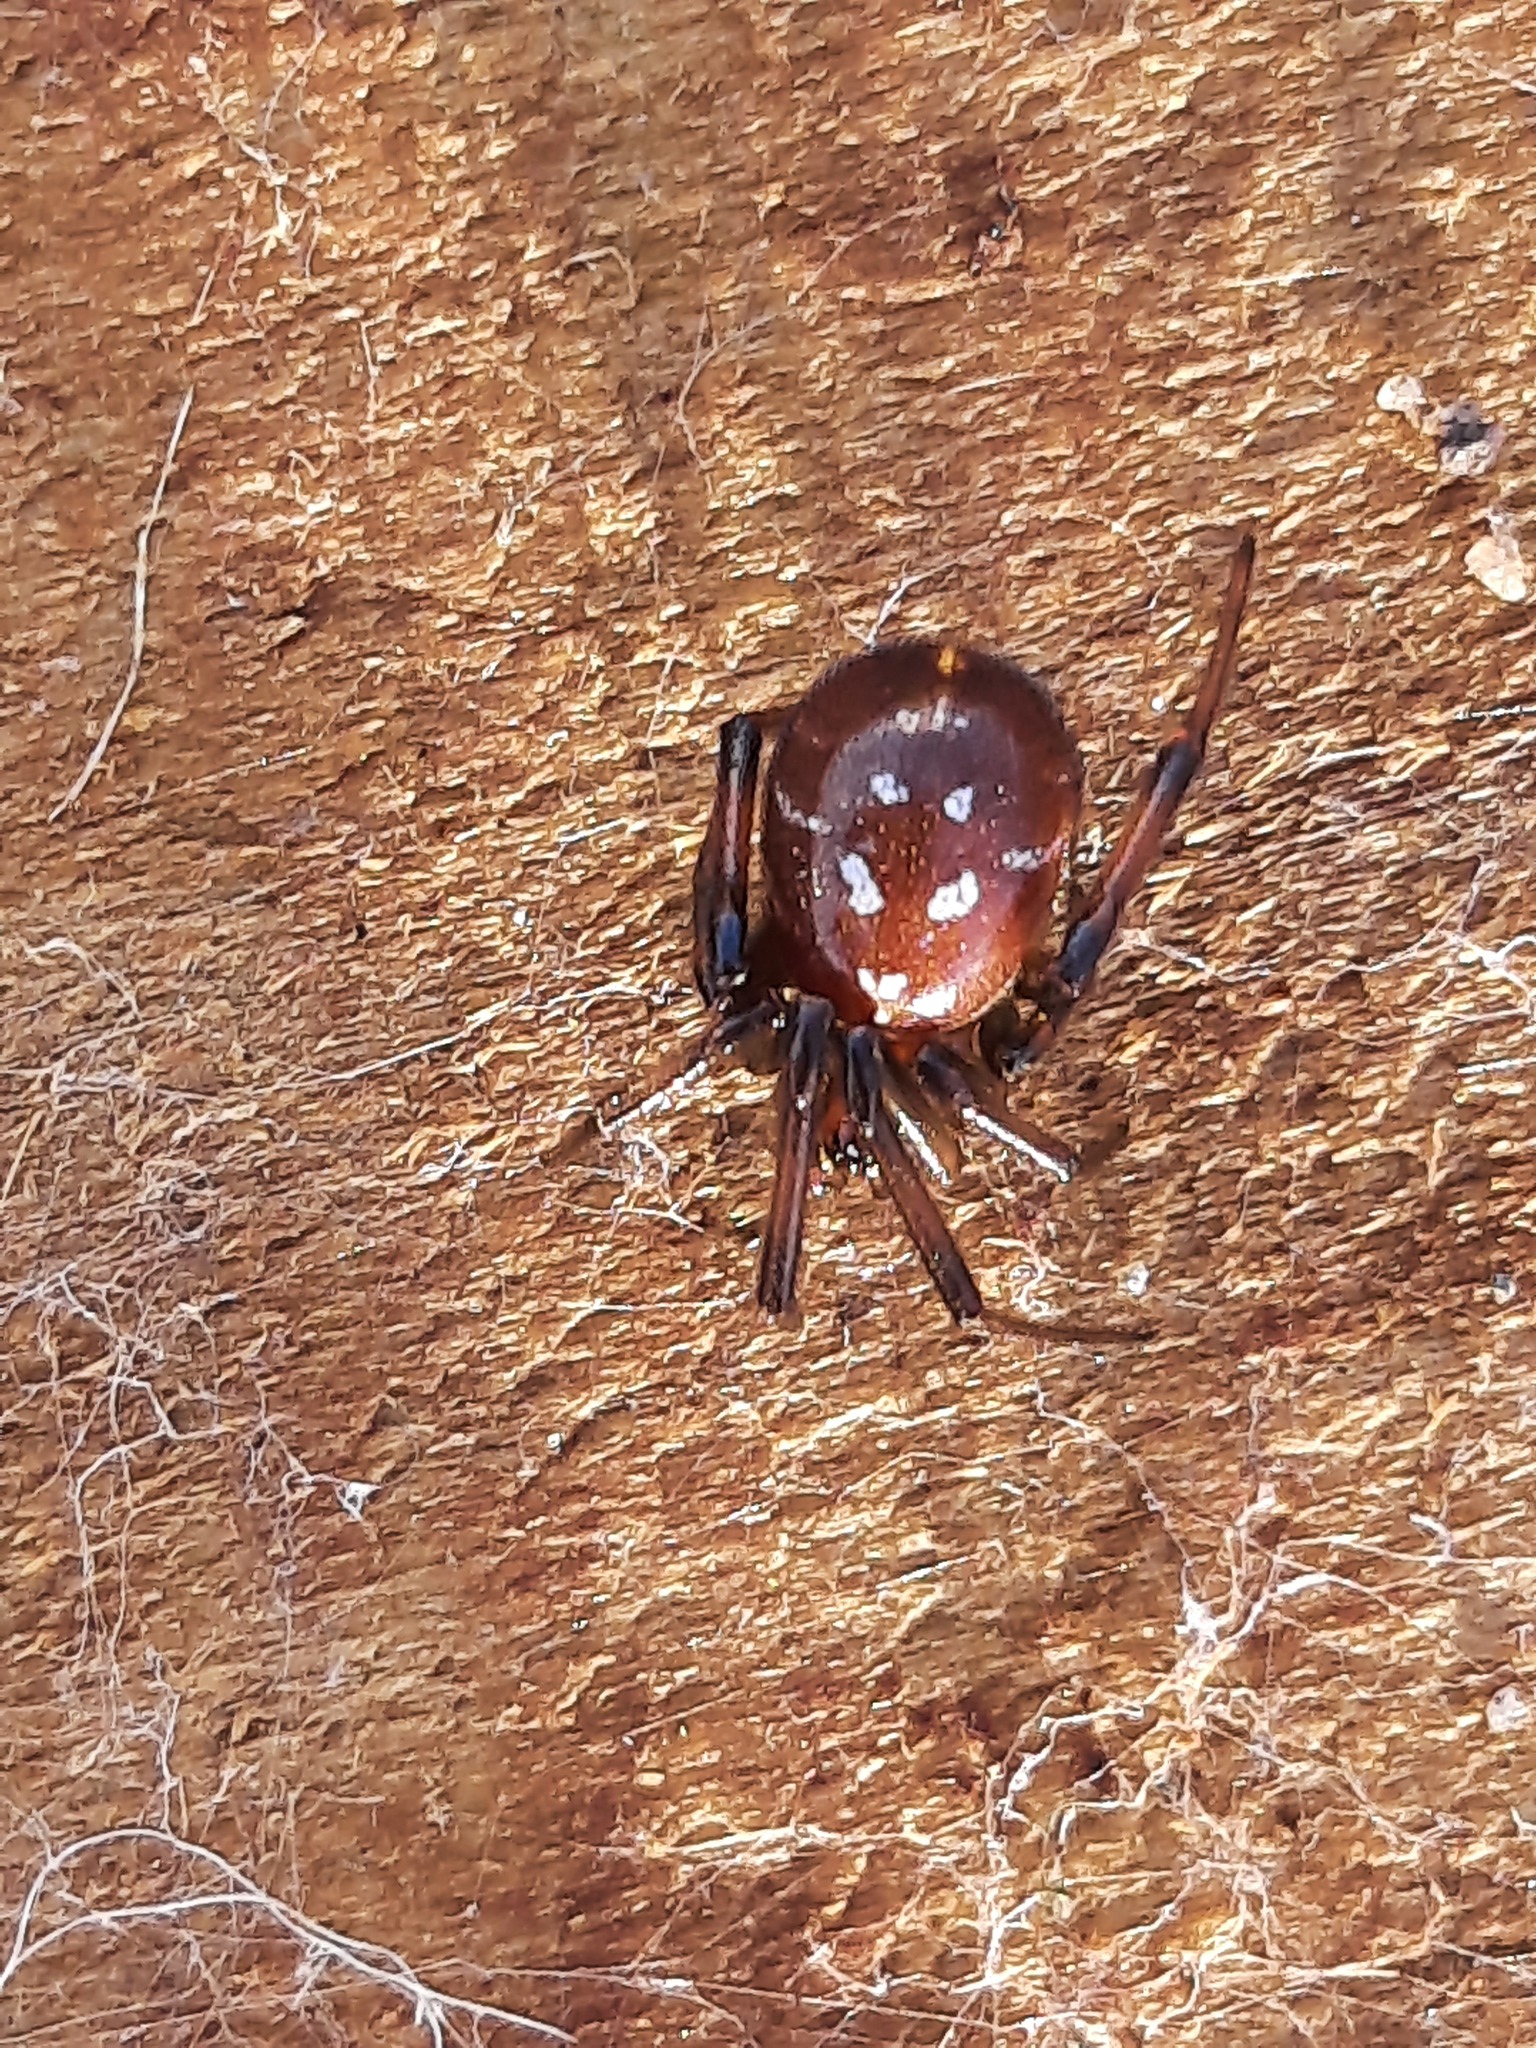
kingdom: Animalia
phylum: Arthropoda
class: Arachnida
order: Araneae
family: Theridiidae
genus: Steatoda
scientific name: Steatoda capensis
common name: Cobweb weaver
